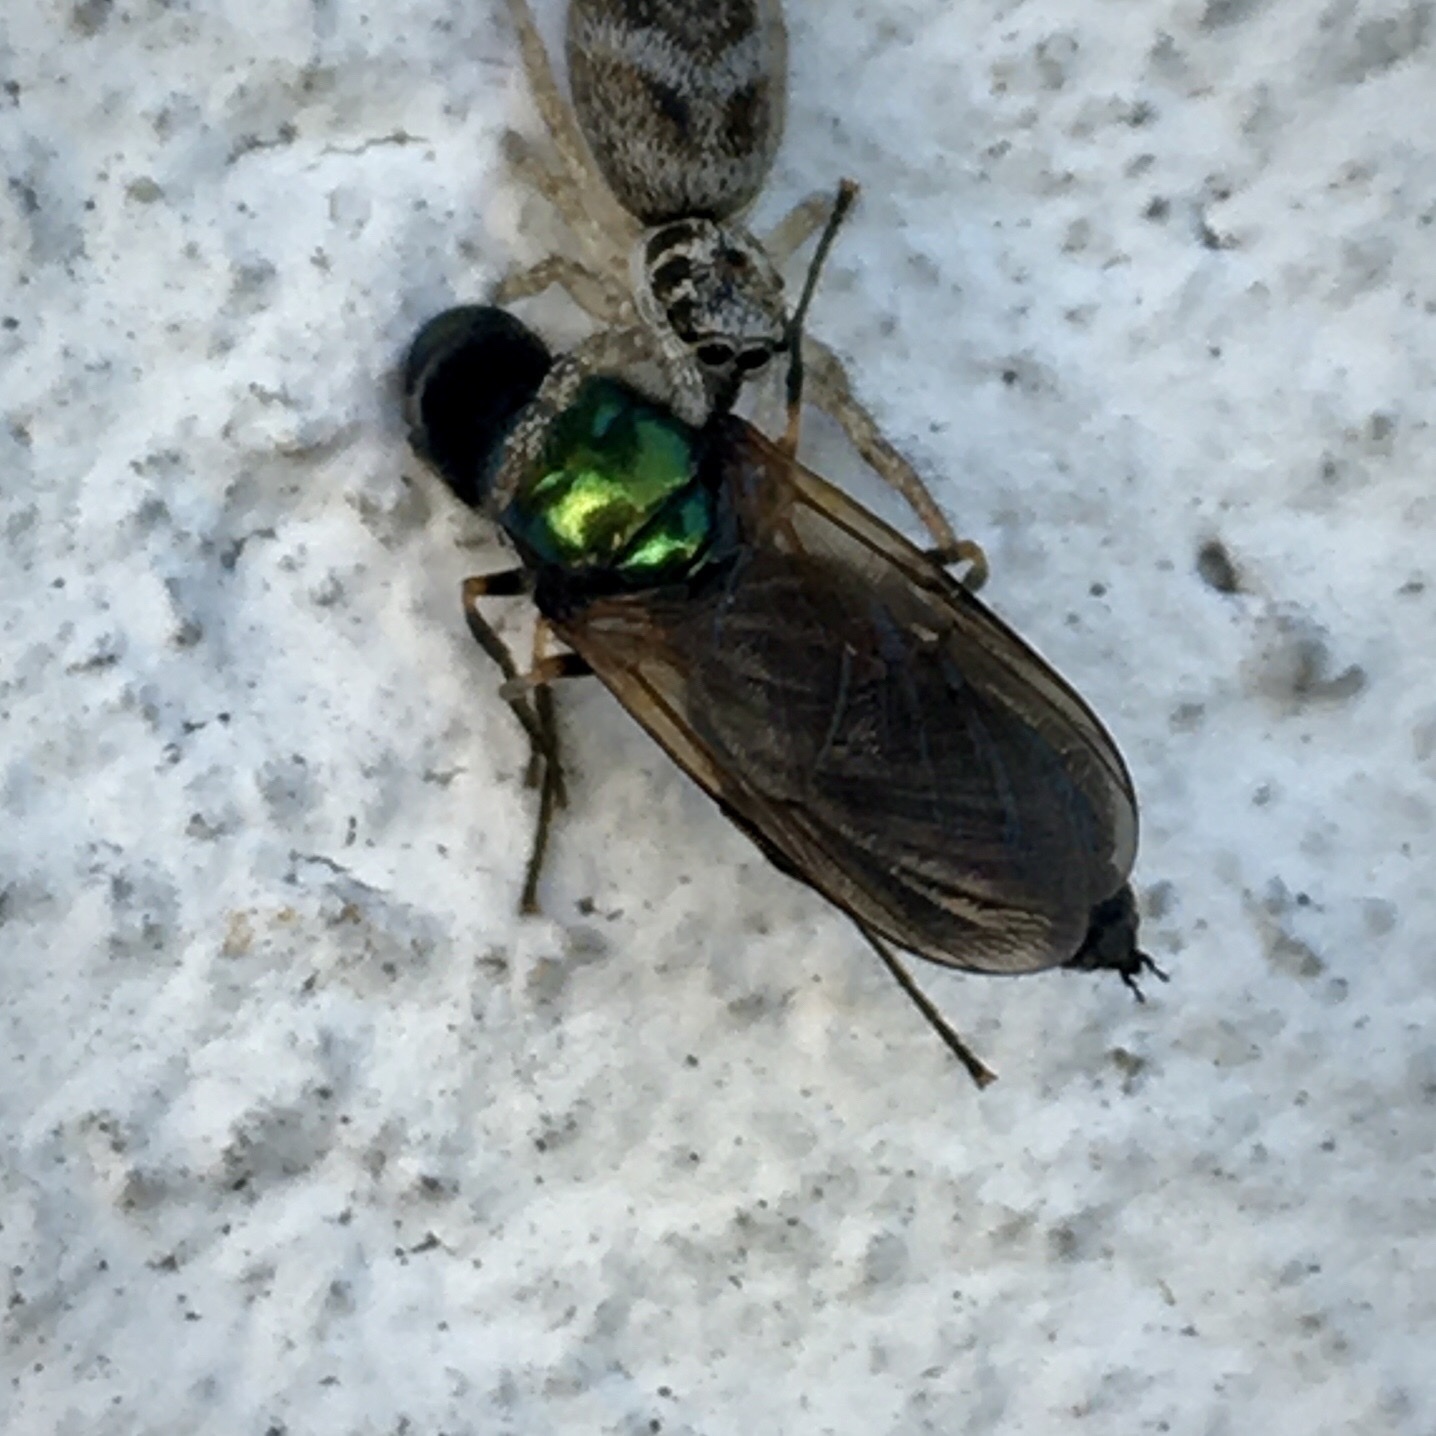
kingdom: Animalia
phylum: Arthropoda
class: Insecta
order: Diptera
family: Stratiomyidae
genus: Chloromyia
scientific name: Chloromyia formosa
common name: Soldier fly
